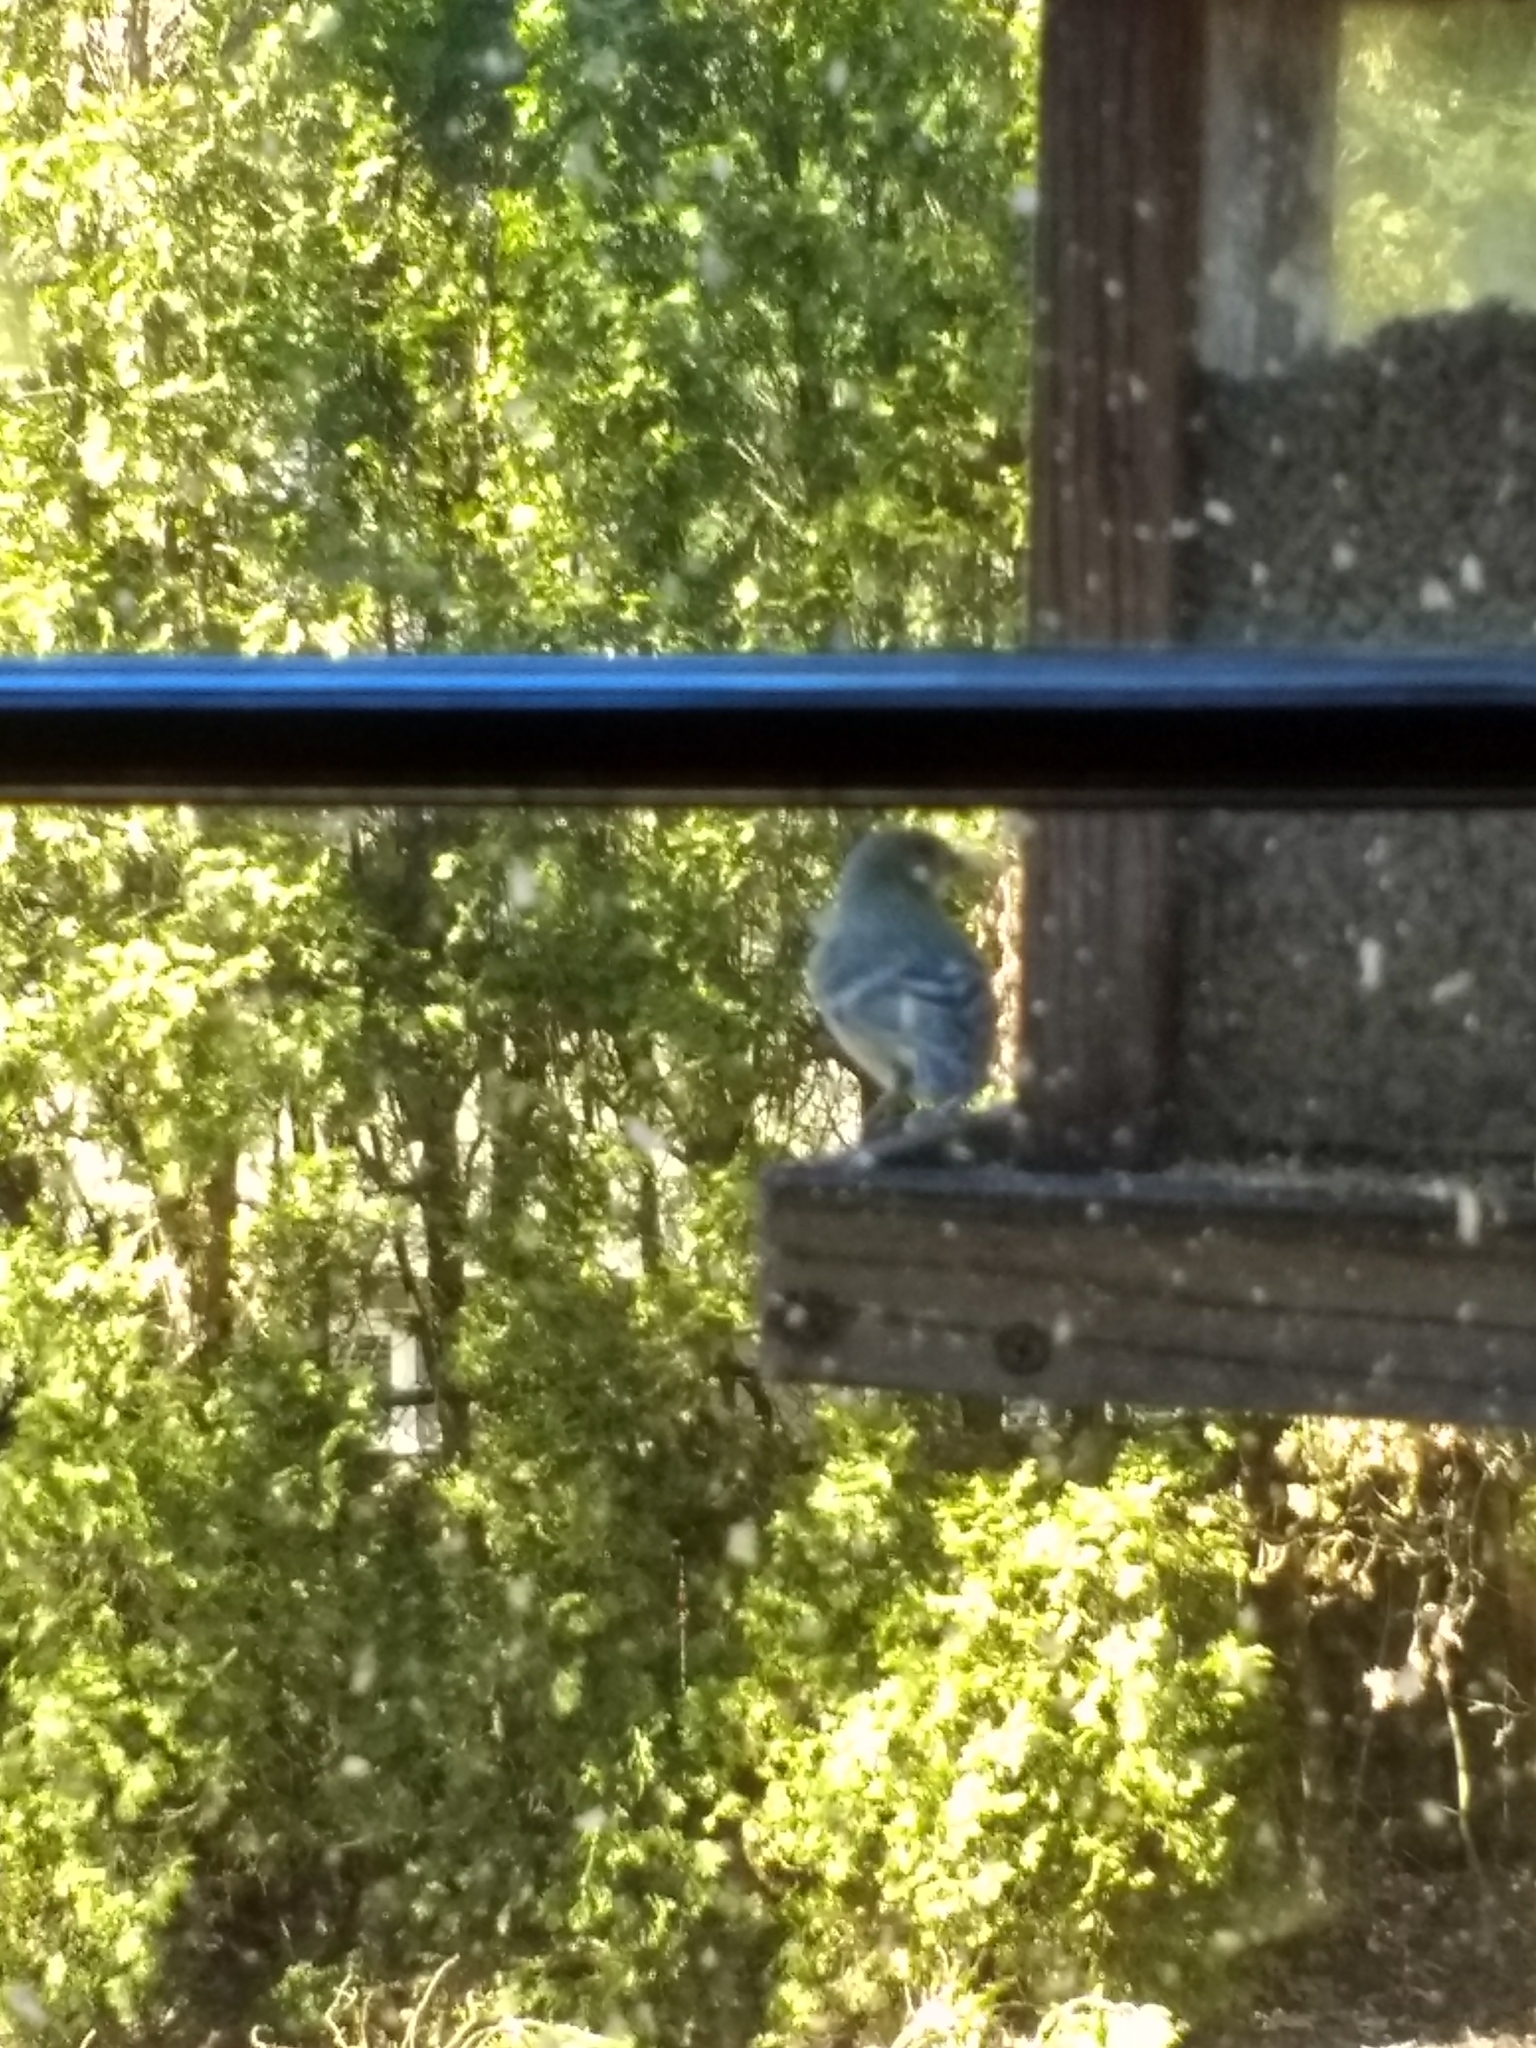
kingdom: Animalia
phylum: Chordata
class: Aves
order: Passeriformes
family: Fringillidae
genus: Spinus
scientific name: Spinus tristis
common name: American goldfinch
